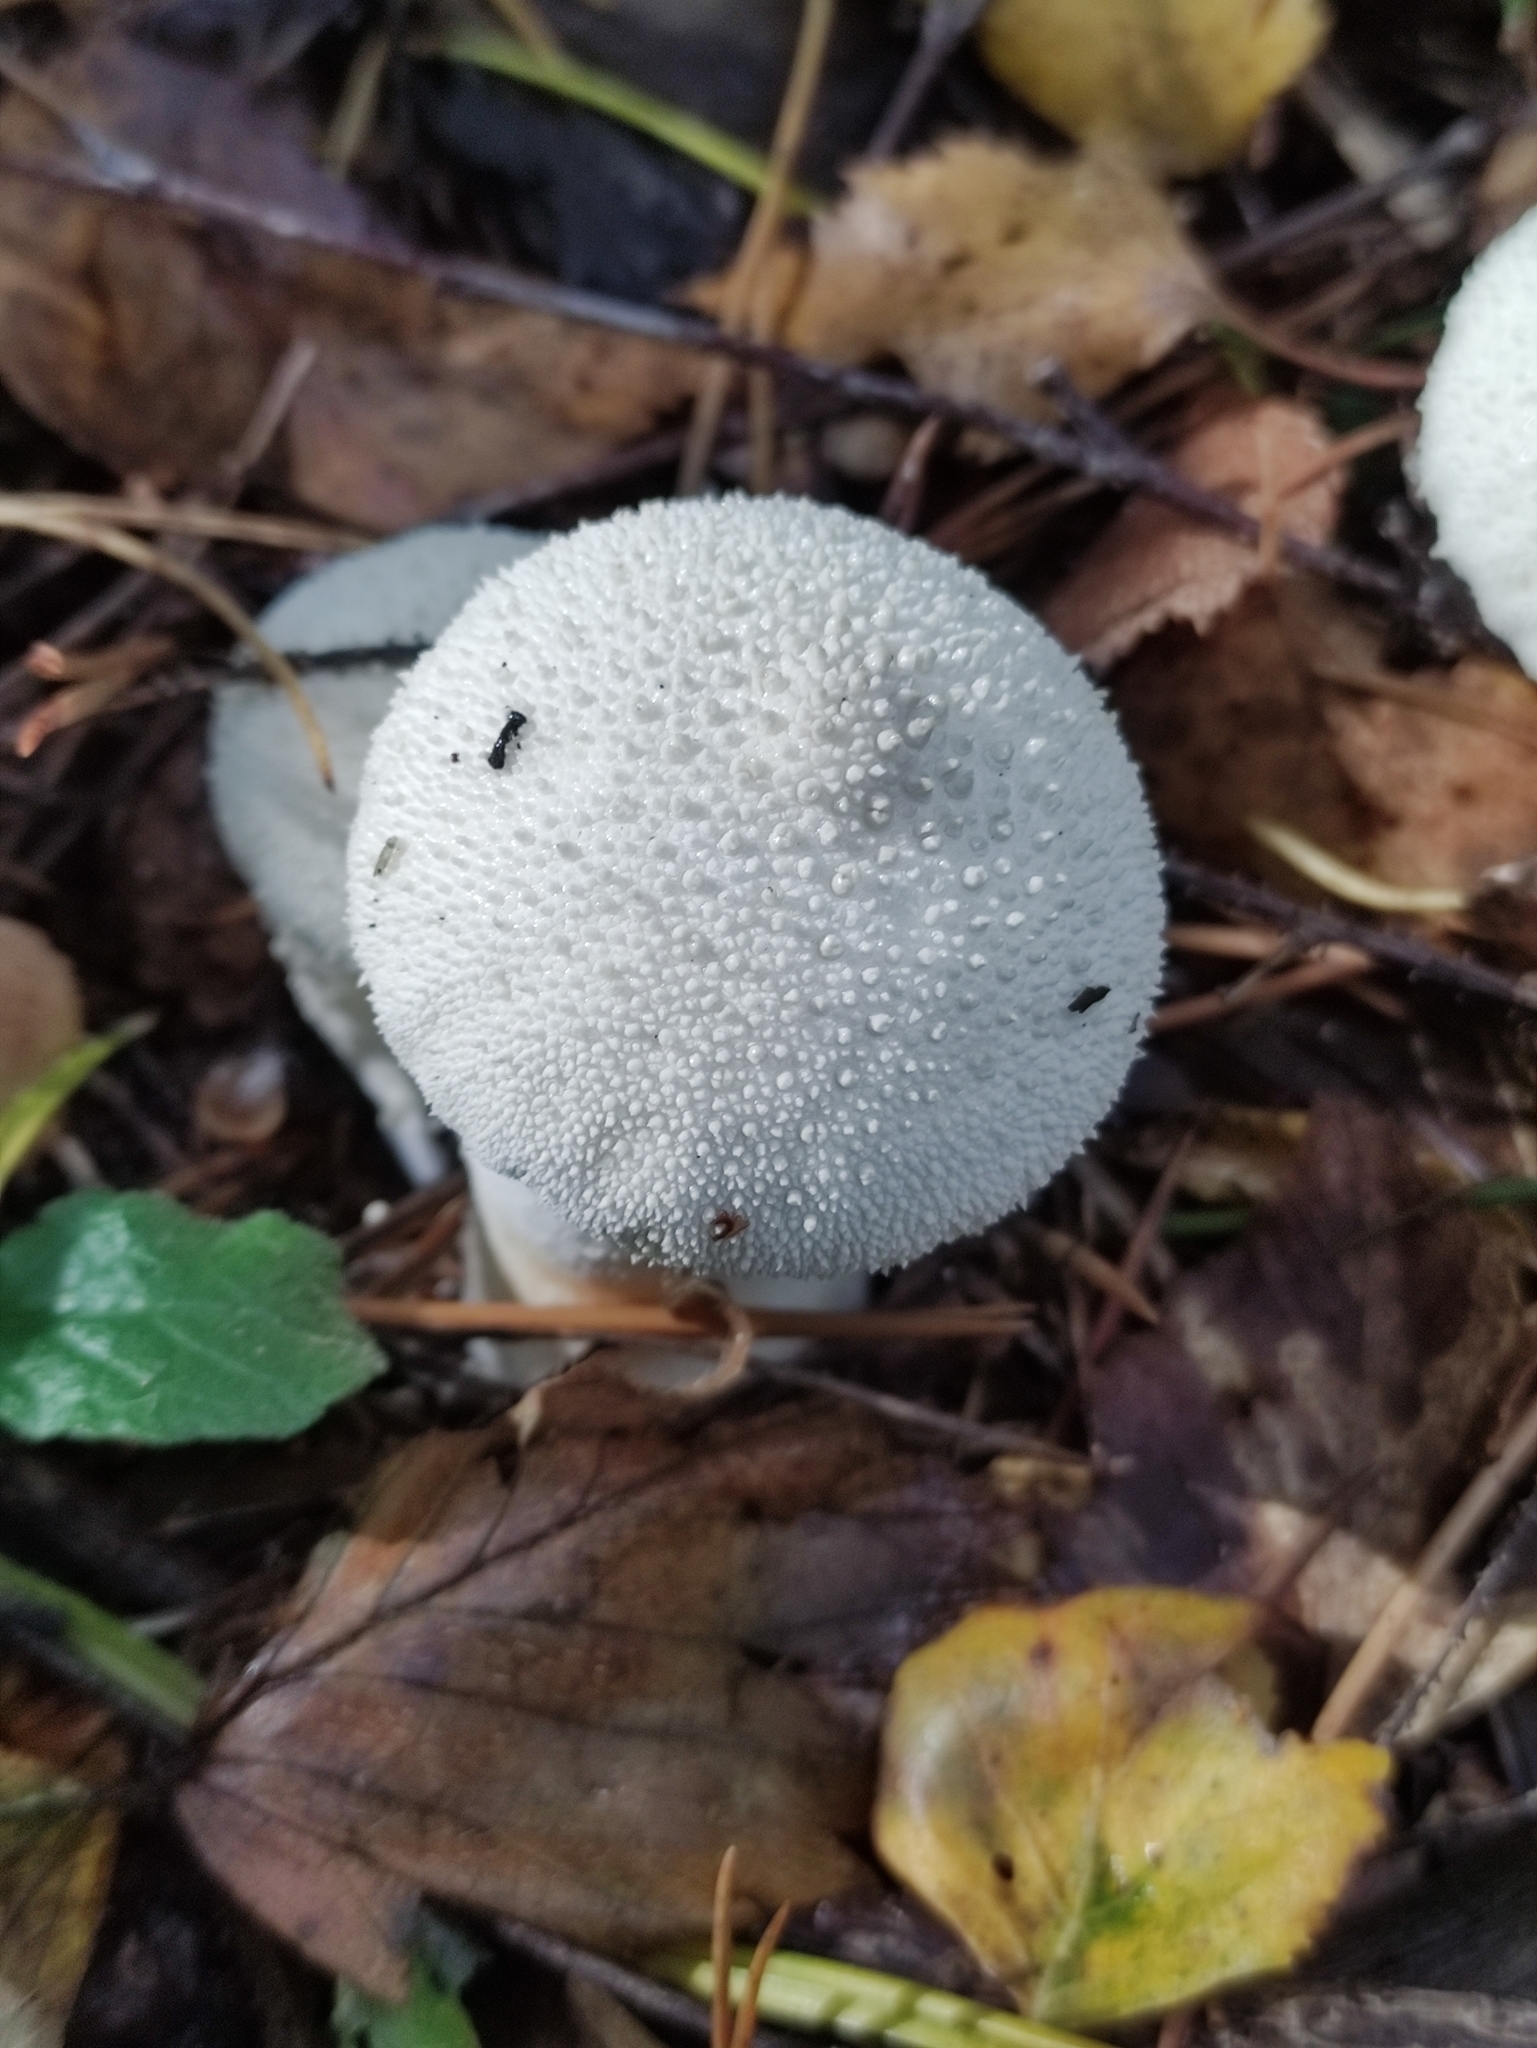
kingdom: Fungi
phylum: Basidiomycota
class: Agaricomycetes
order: Agaricales
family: Lycoperdaceae
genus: Lycoperdon
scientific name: Lycoperdon perlatum
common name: Common puffball
